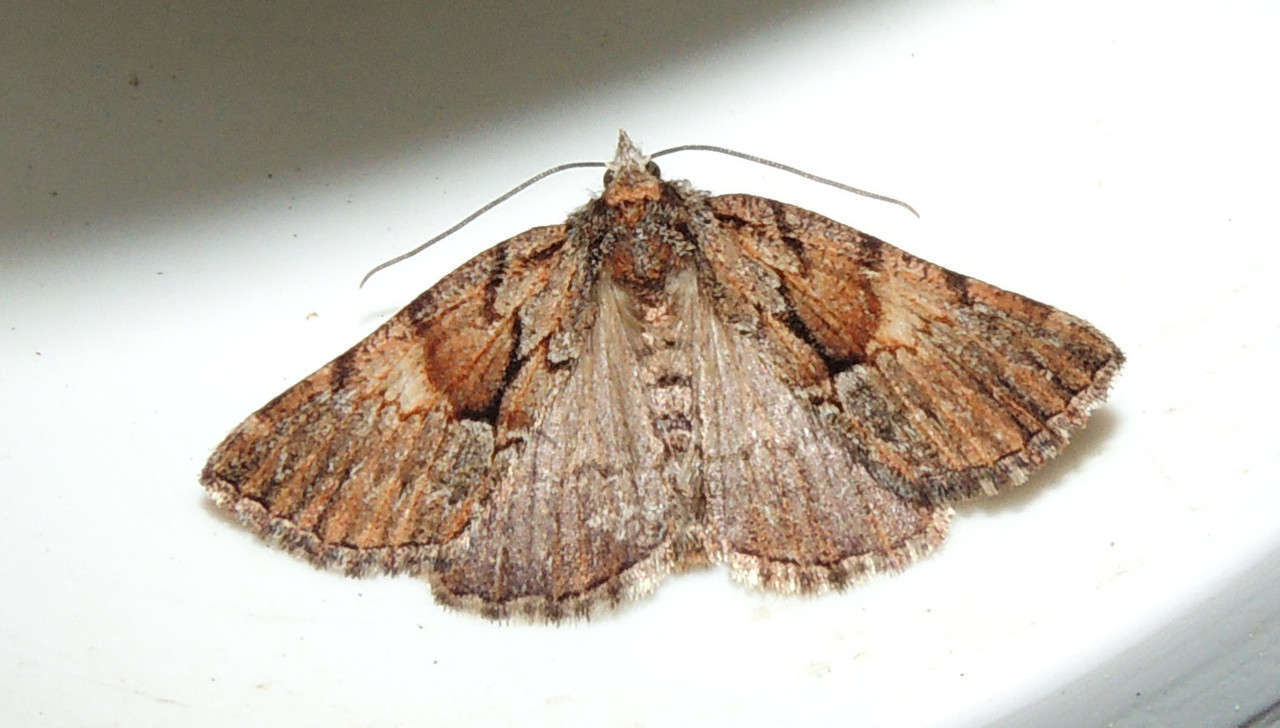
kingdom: Animalia
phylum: Arthropoda
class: Insecta
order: Lepidoptera
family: Geometridae
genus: Smyriodes
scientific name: Smyriodes
